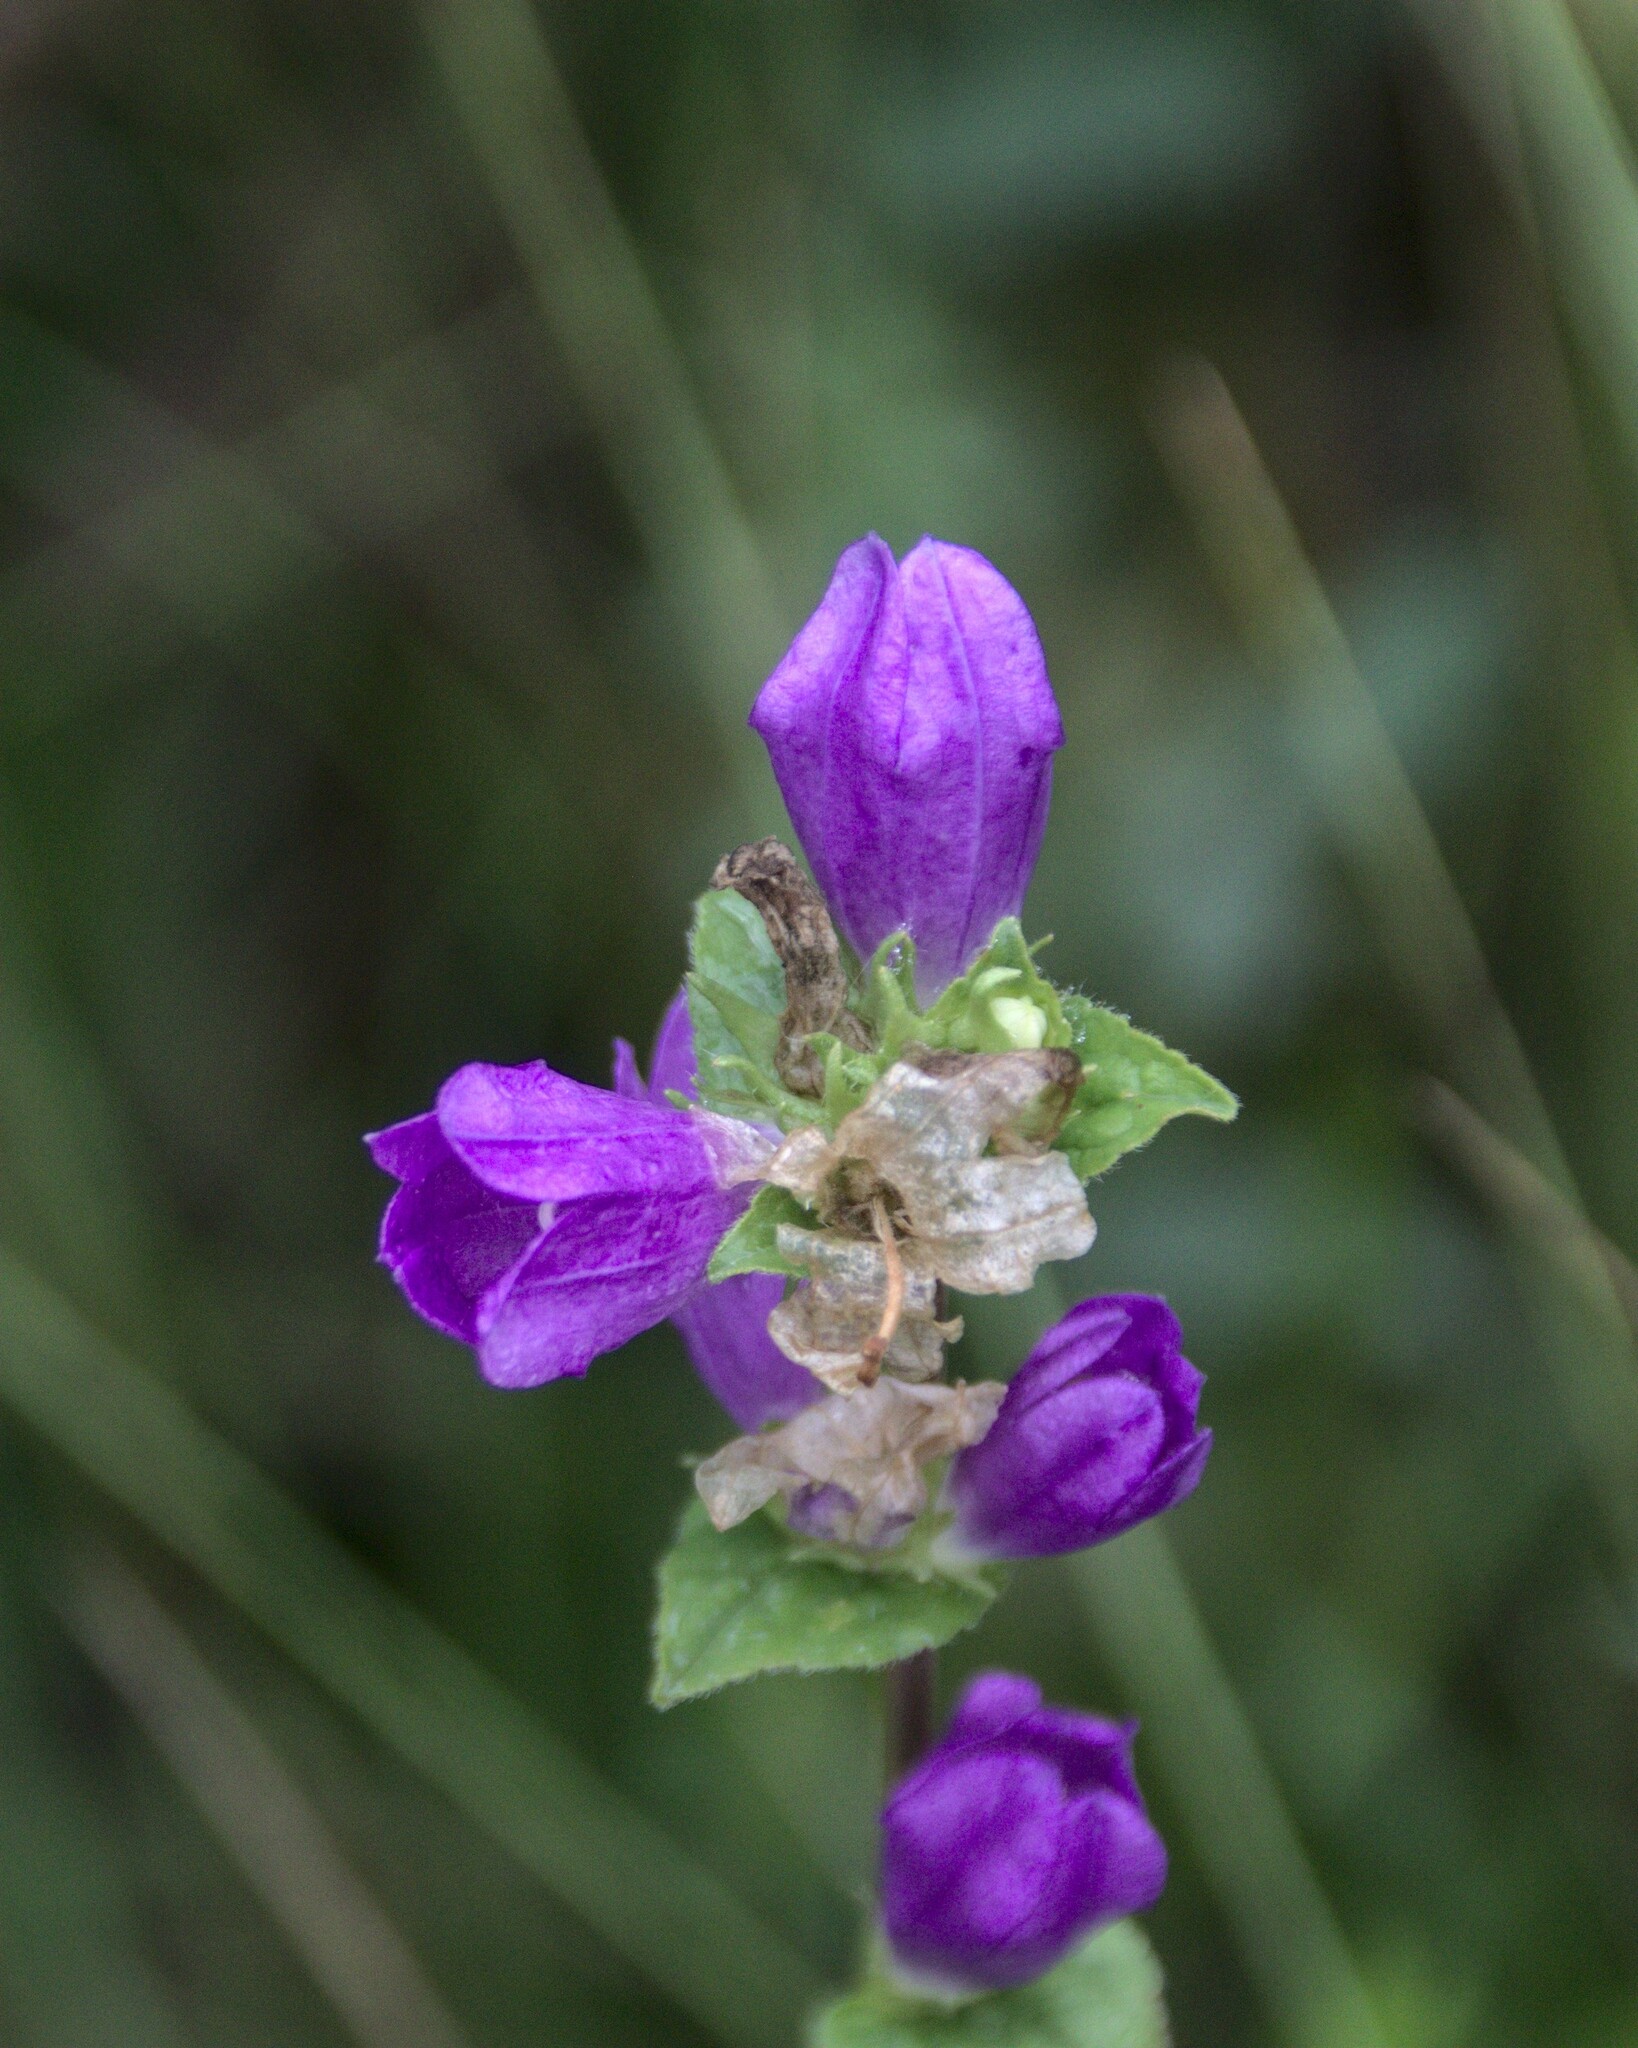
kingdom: Plantae
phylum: Tracheophyta
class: Magnoliopsida
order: Asterales
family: Campanulaceae
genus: Campanula
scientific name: Campanula glomerata
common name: Clustered bellflower
